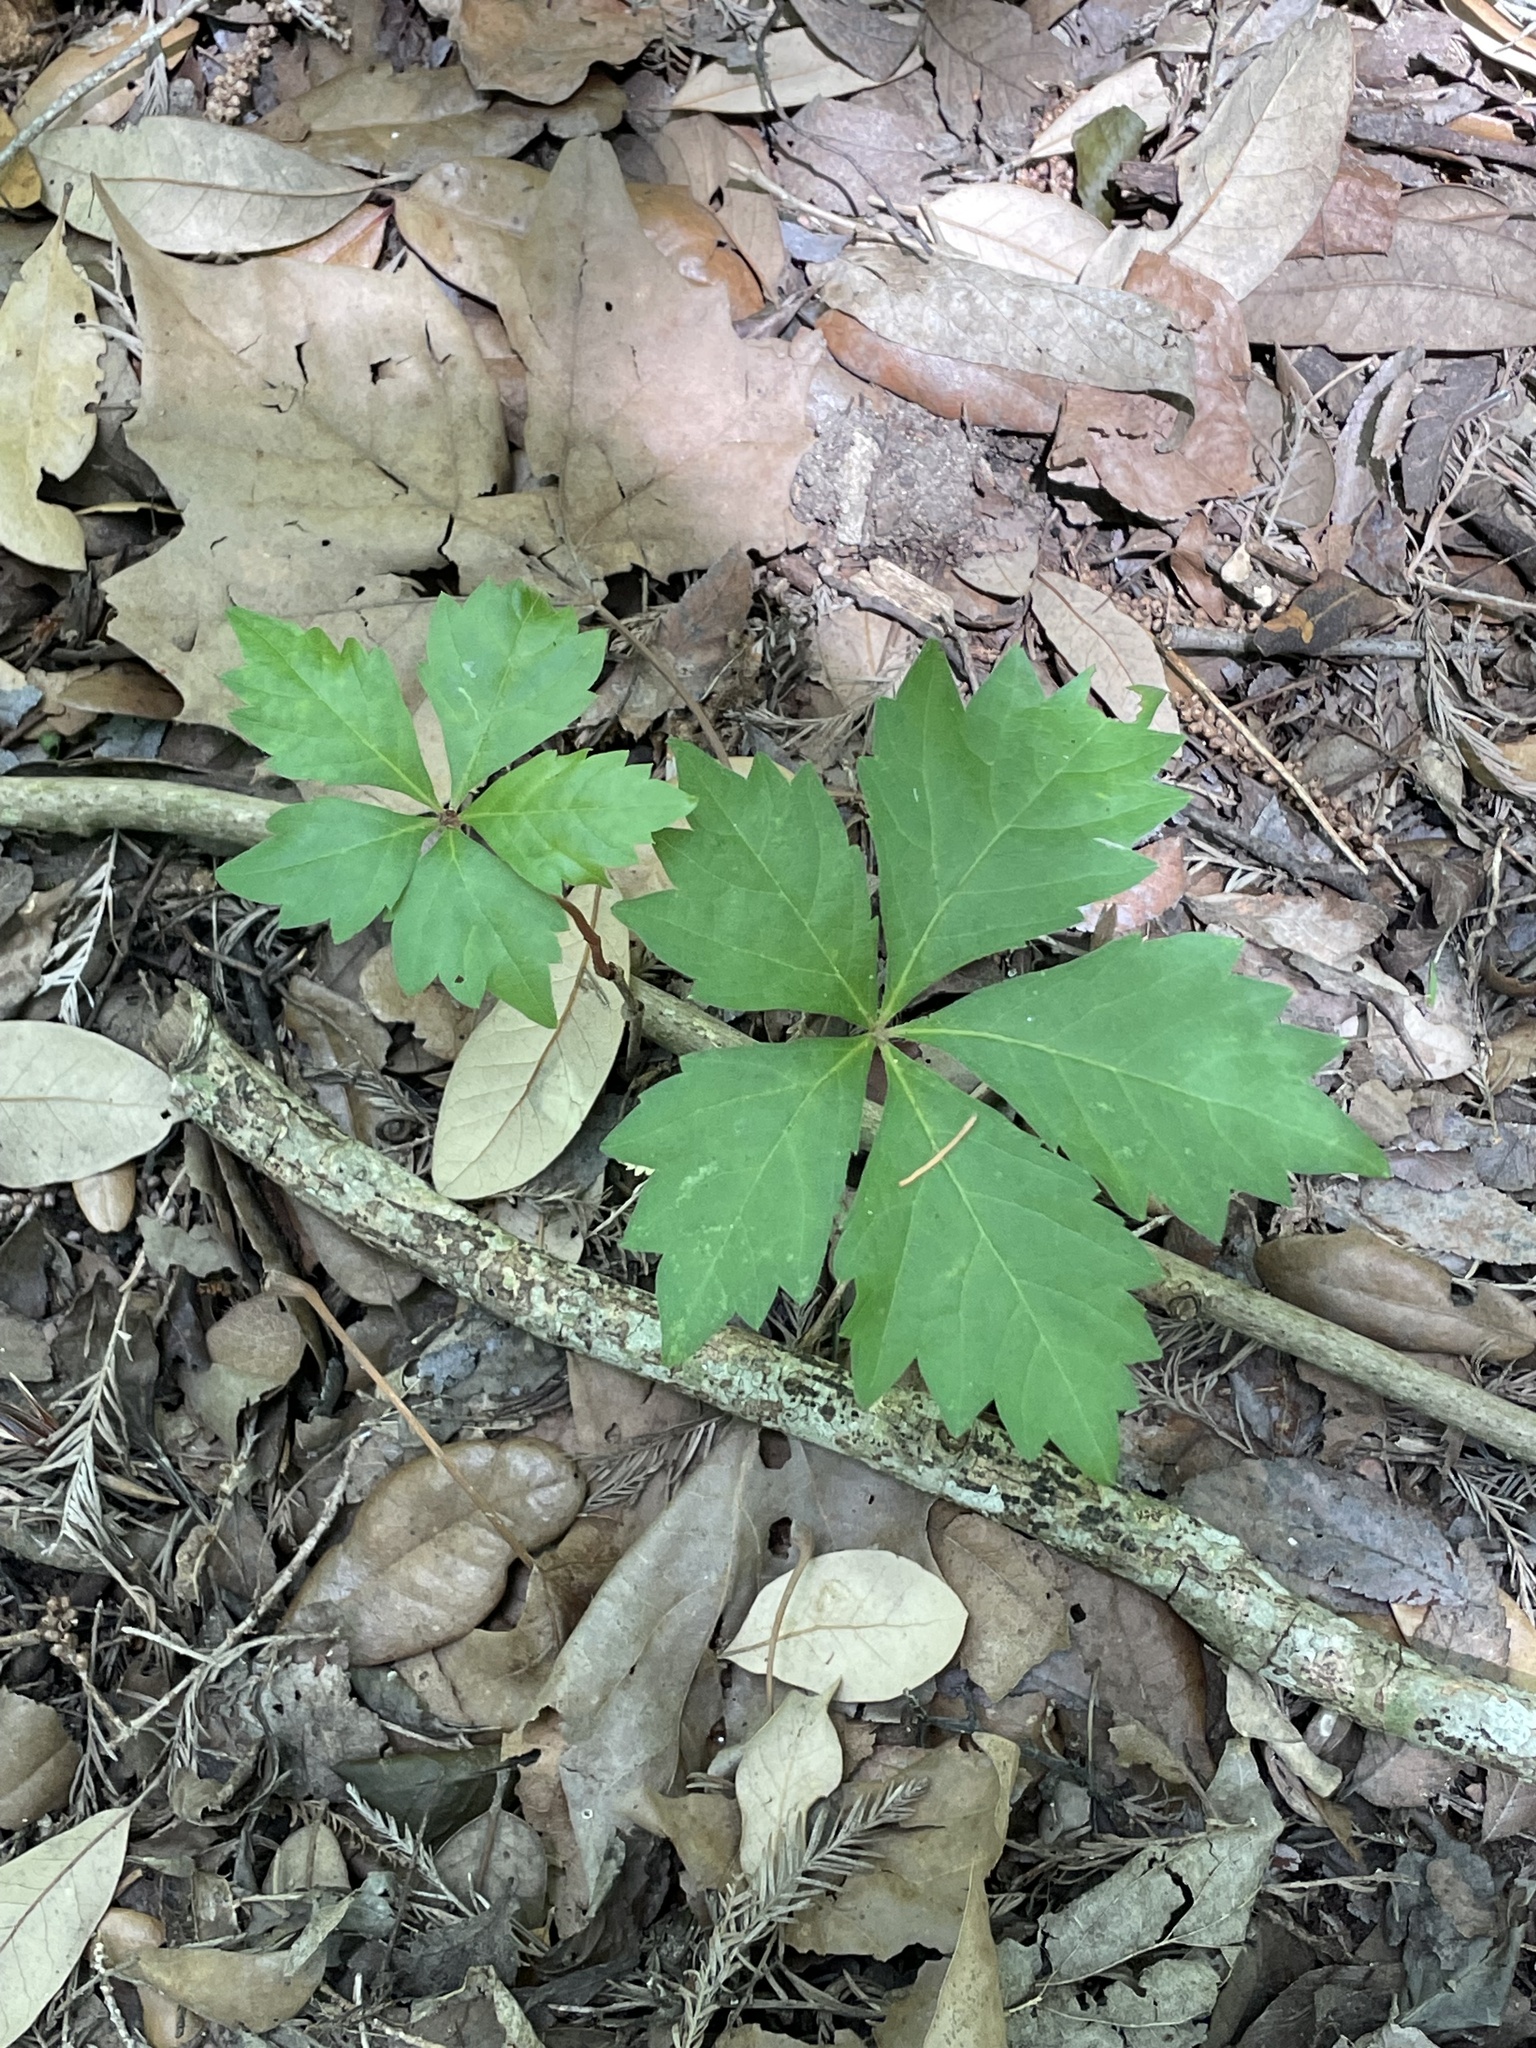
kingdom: Plantae
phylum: Tracheophyta
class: Magnoliopsida
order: Vitales
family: Vitaceae
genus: Parthenocissus
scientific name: Parthenocissus quinquefolia
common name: Virginia-creeper
